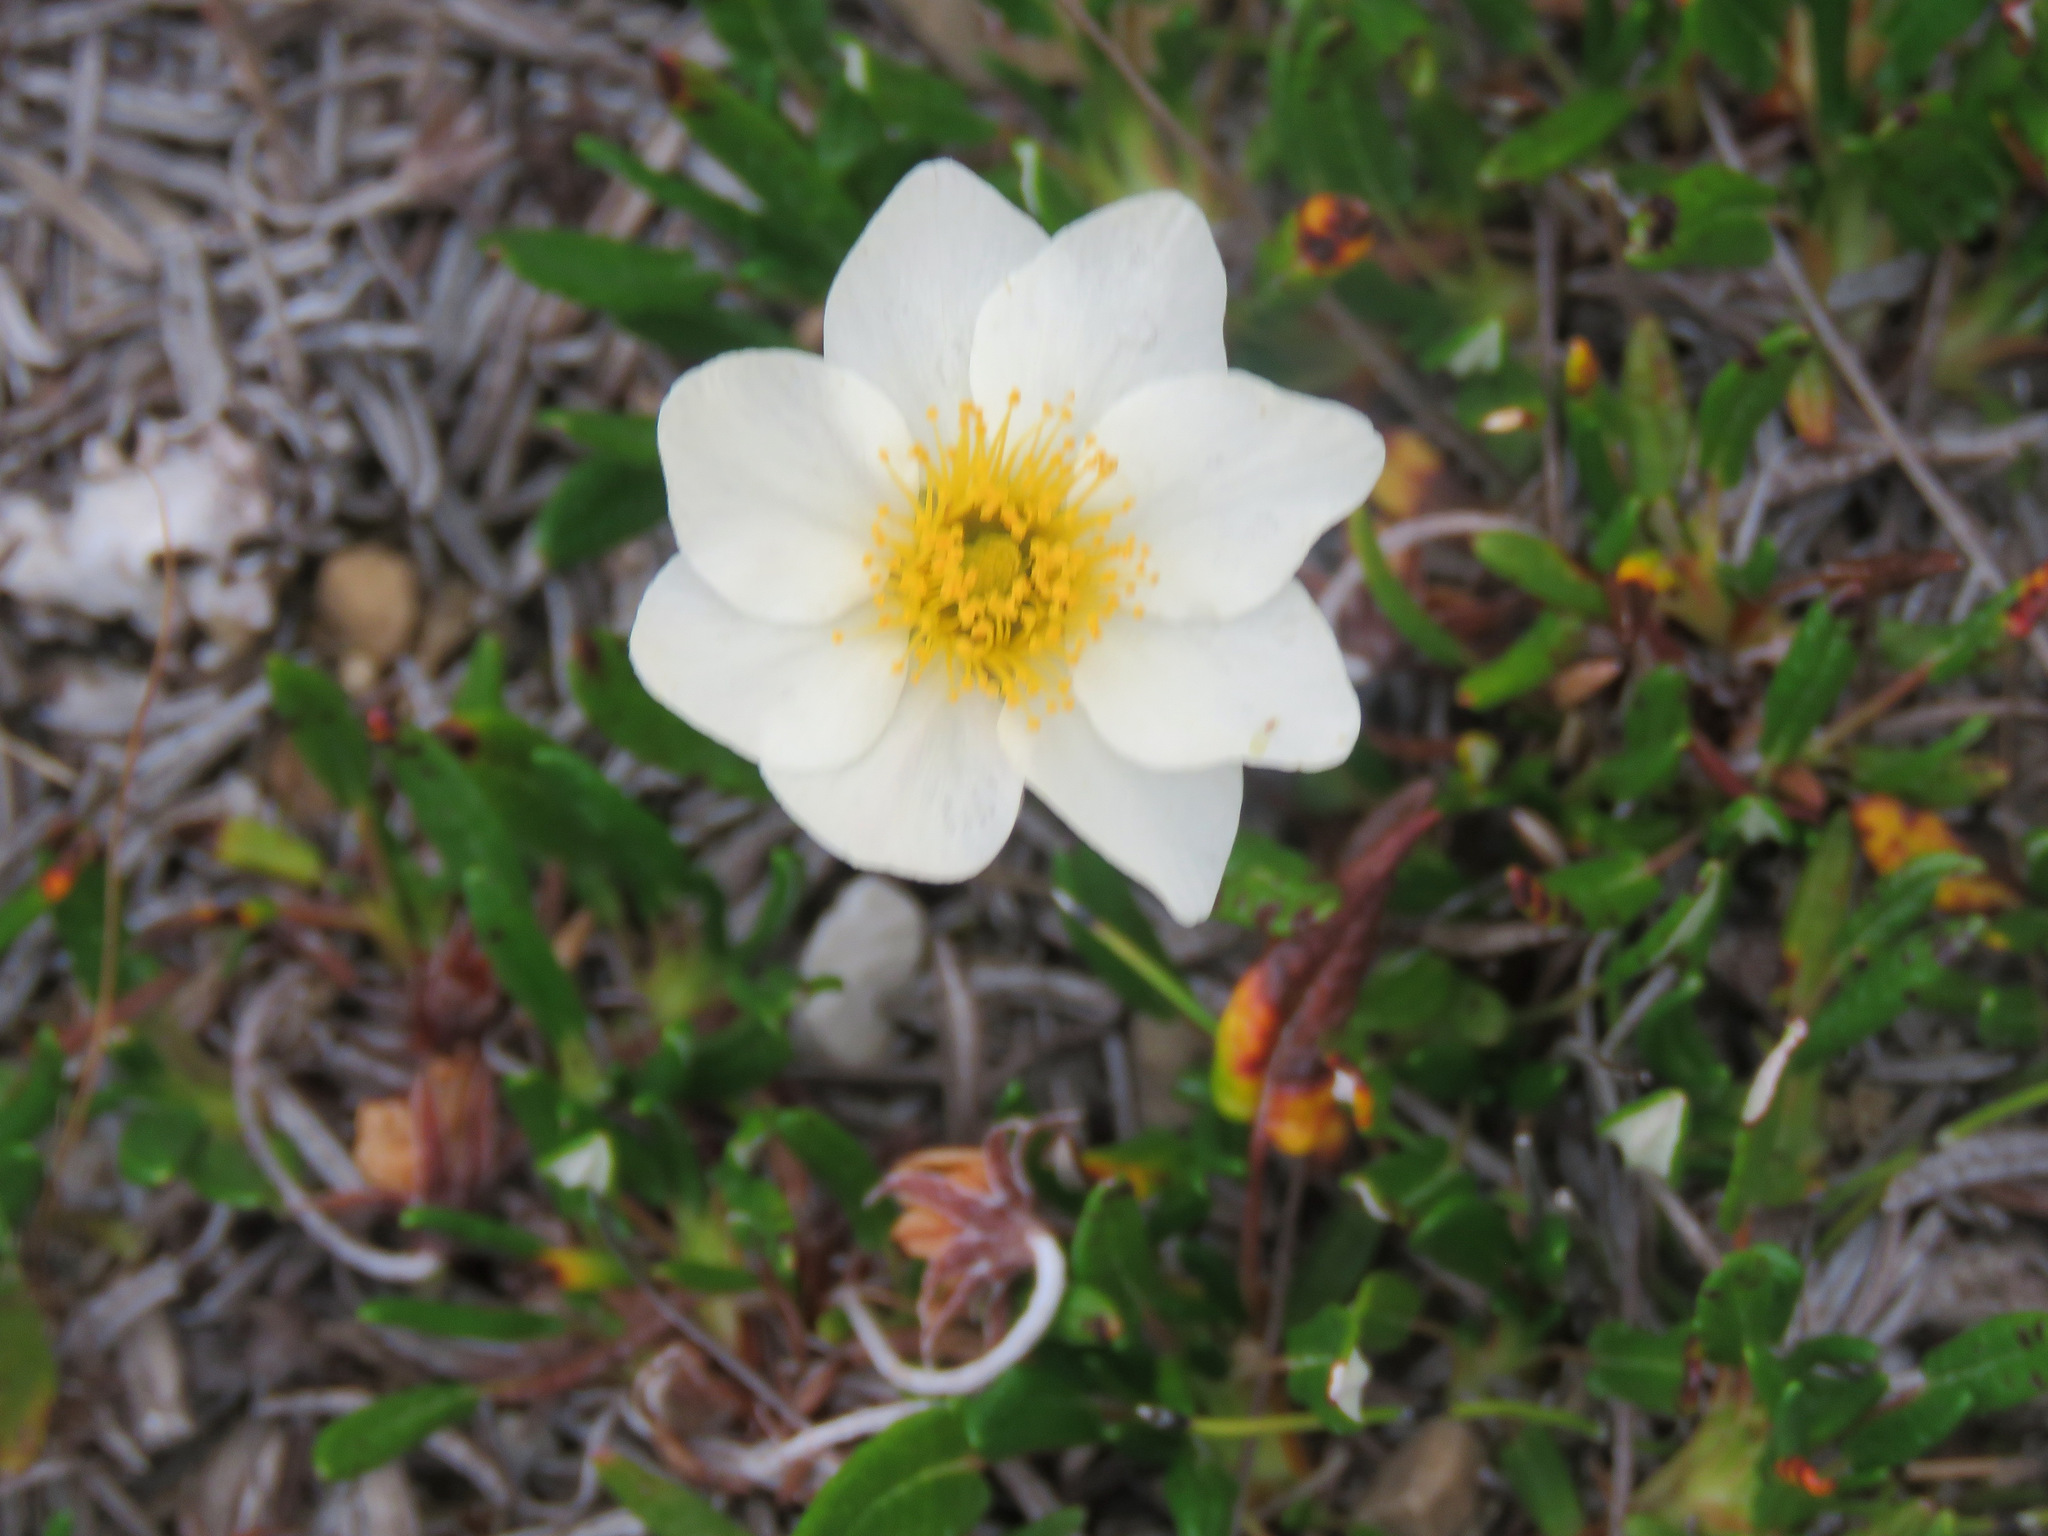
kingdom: Plantae
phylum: Tracheophyta
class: Magnoliopsida
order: Rosales
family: Rosaceae
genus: Dryas
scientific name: Dryas integrifolia
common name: Entire-leaved mountain avens
